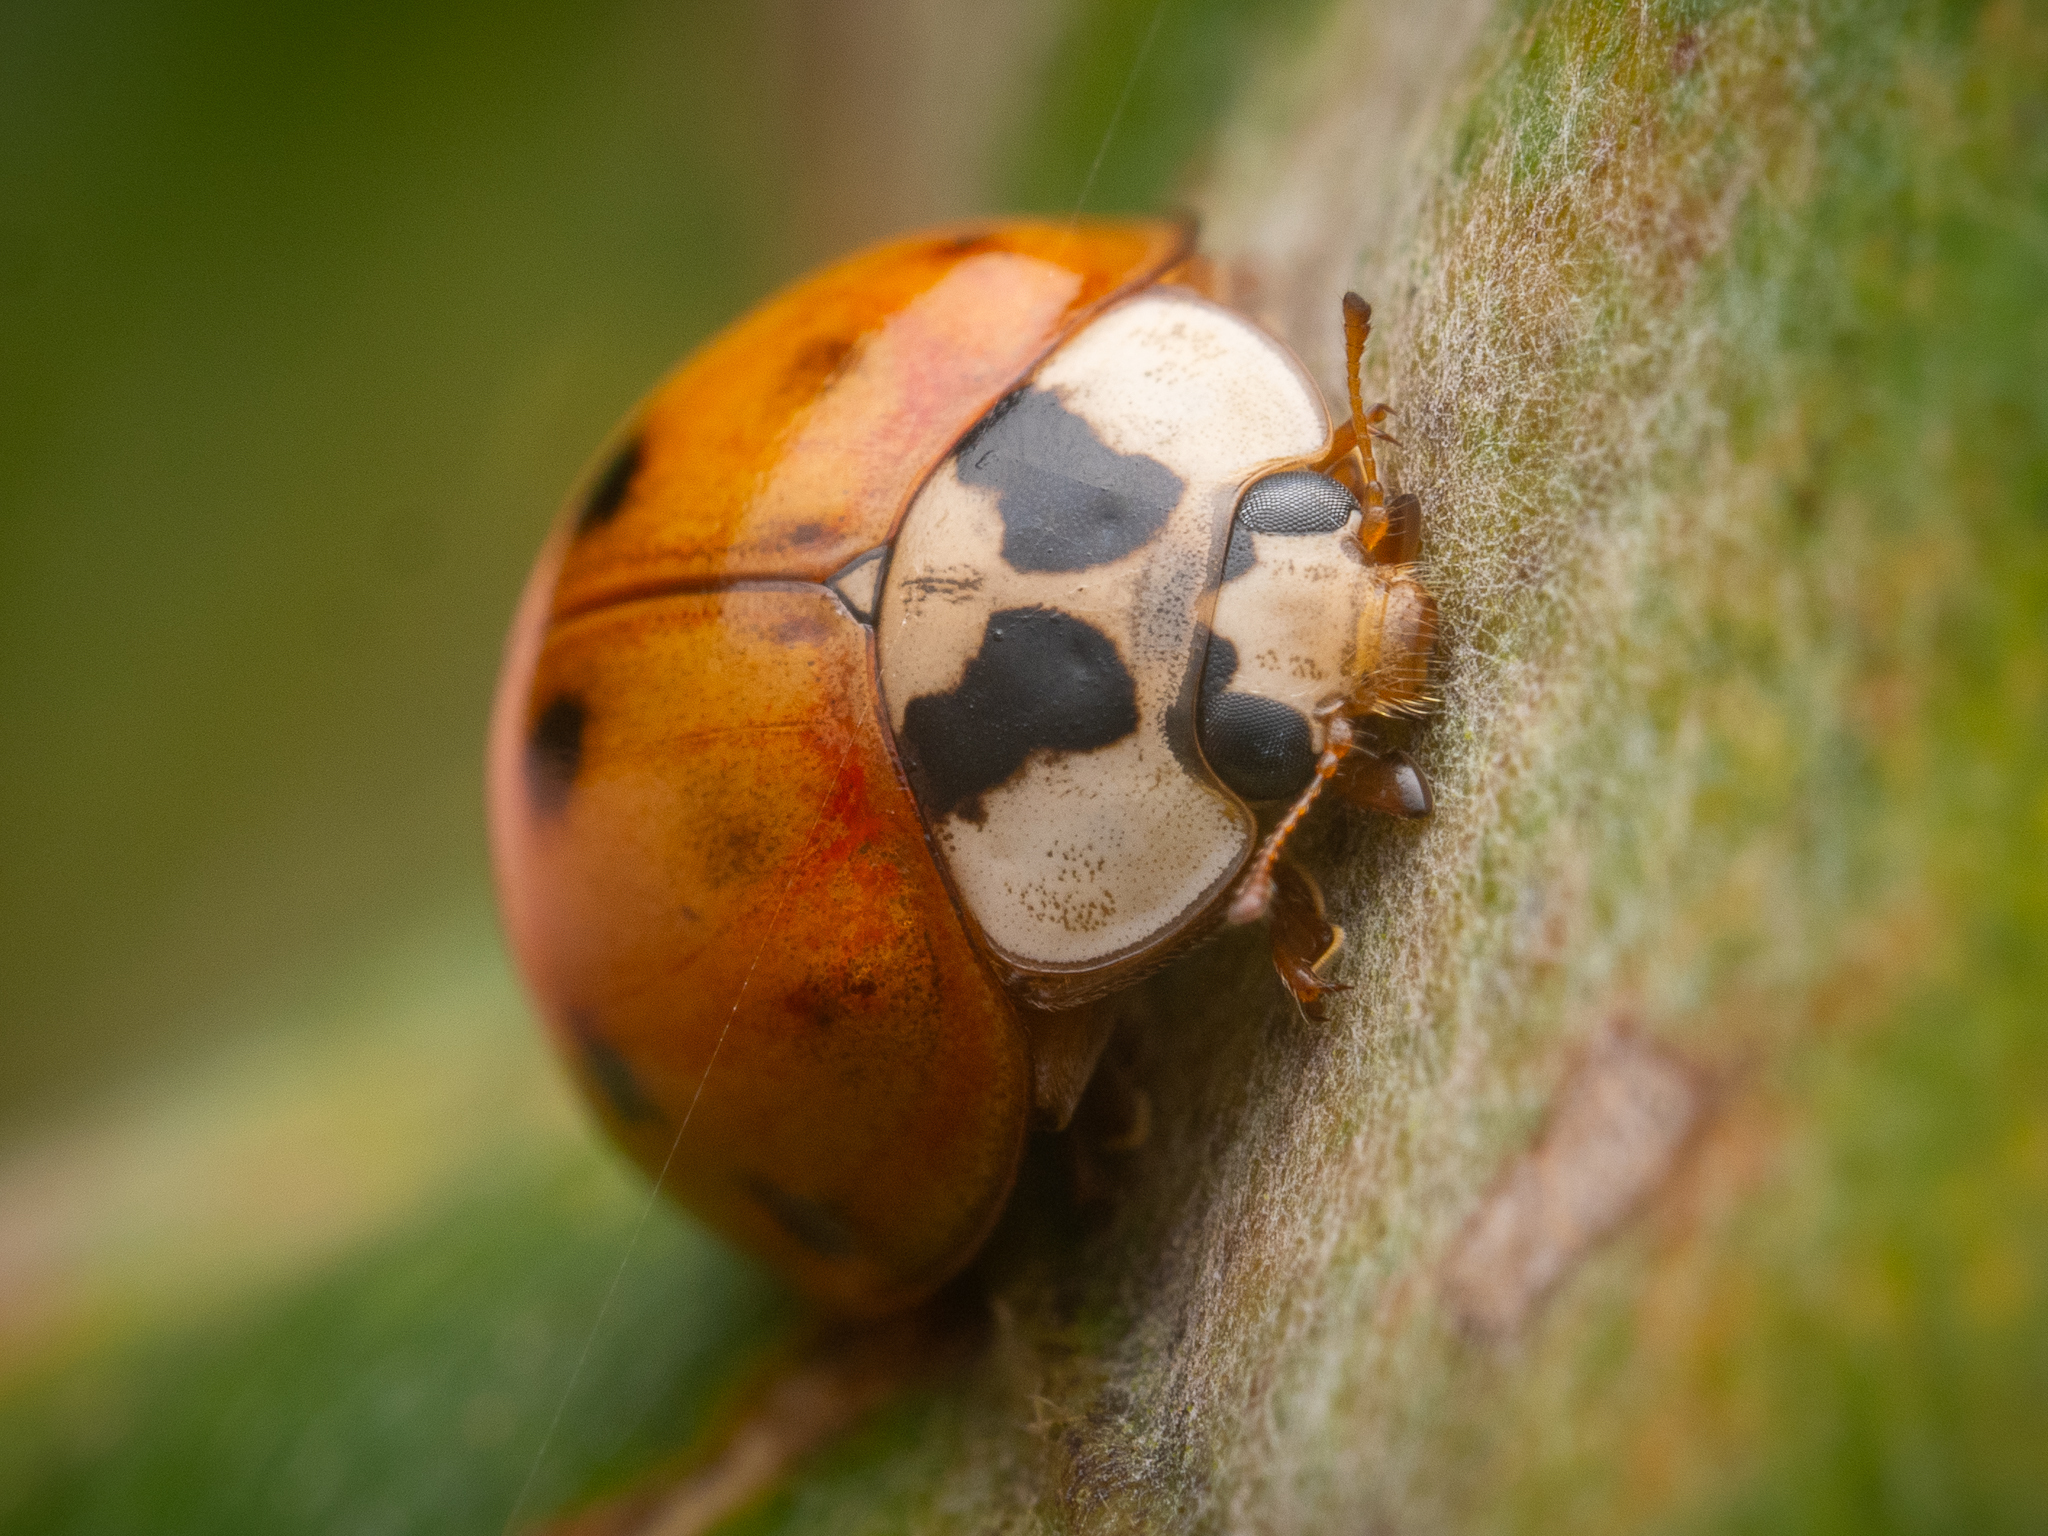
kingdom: Animalia
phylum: Arthropoda
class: Insecta
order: Coleoptera
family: Coccinellidae
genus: Harmonia
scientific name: Harmonia axyridis
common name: Harlequin ladybird
